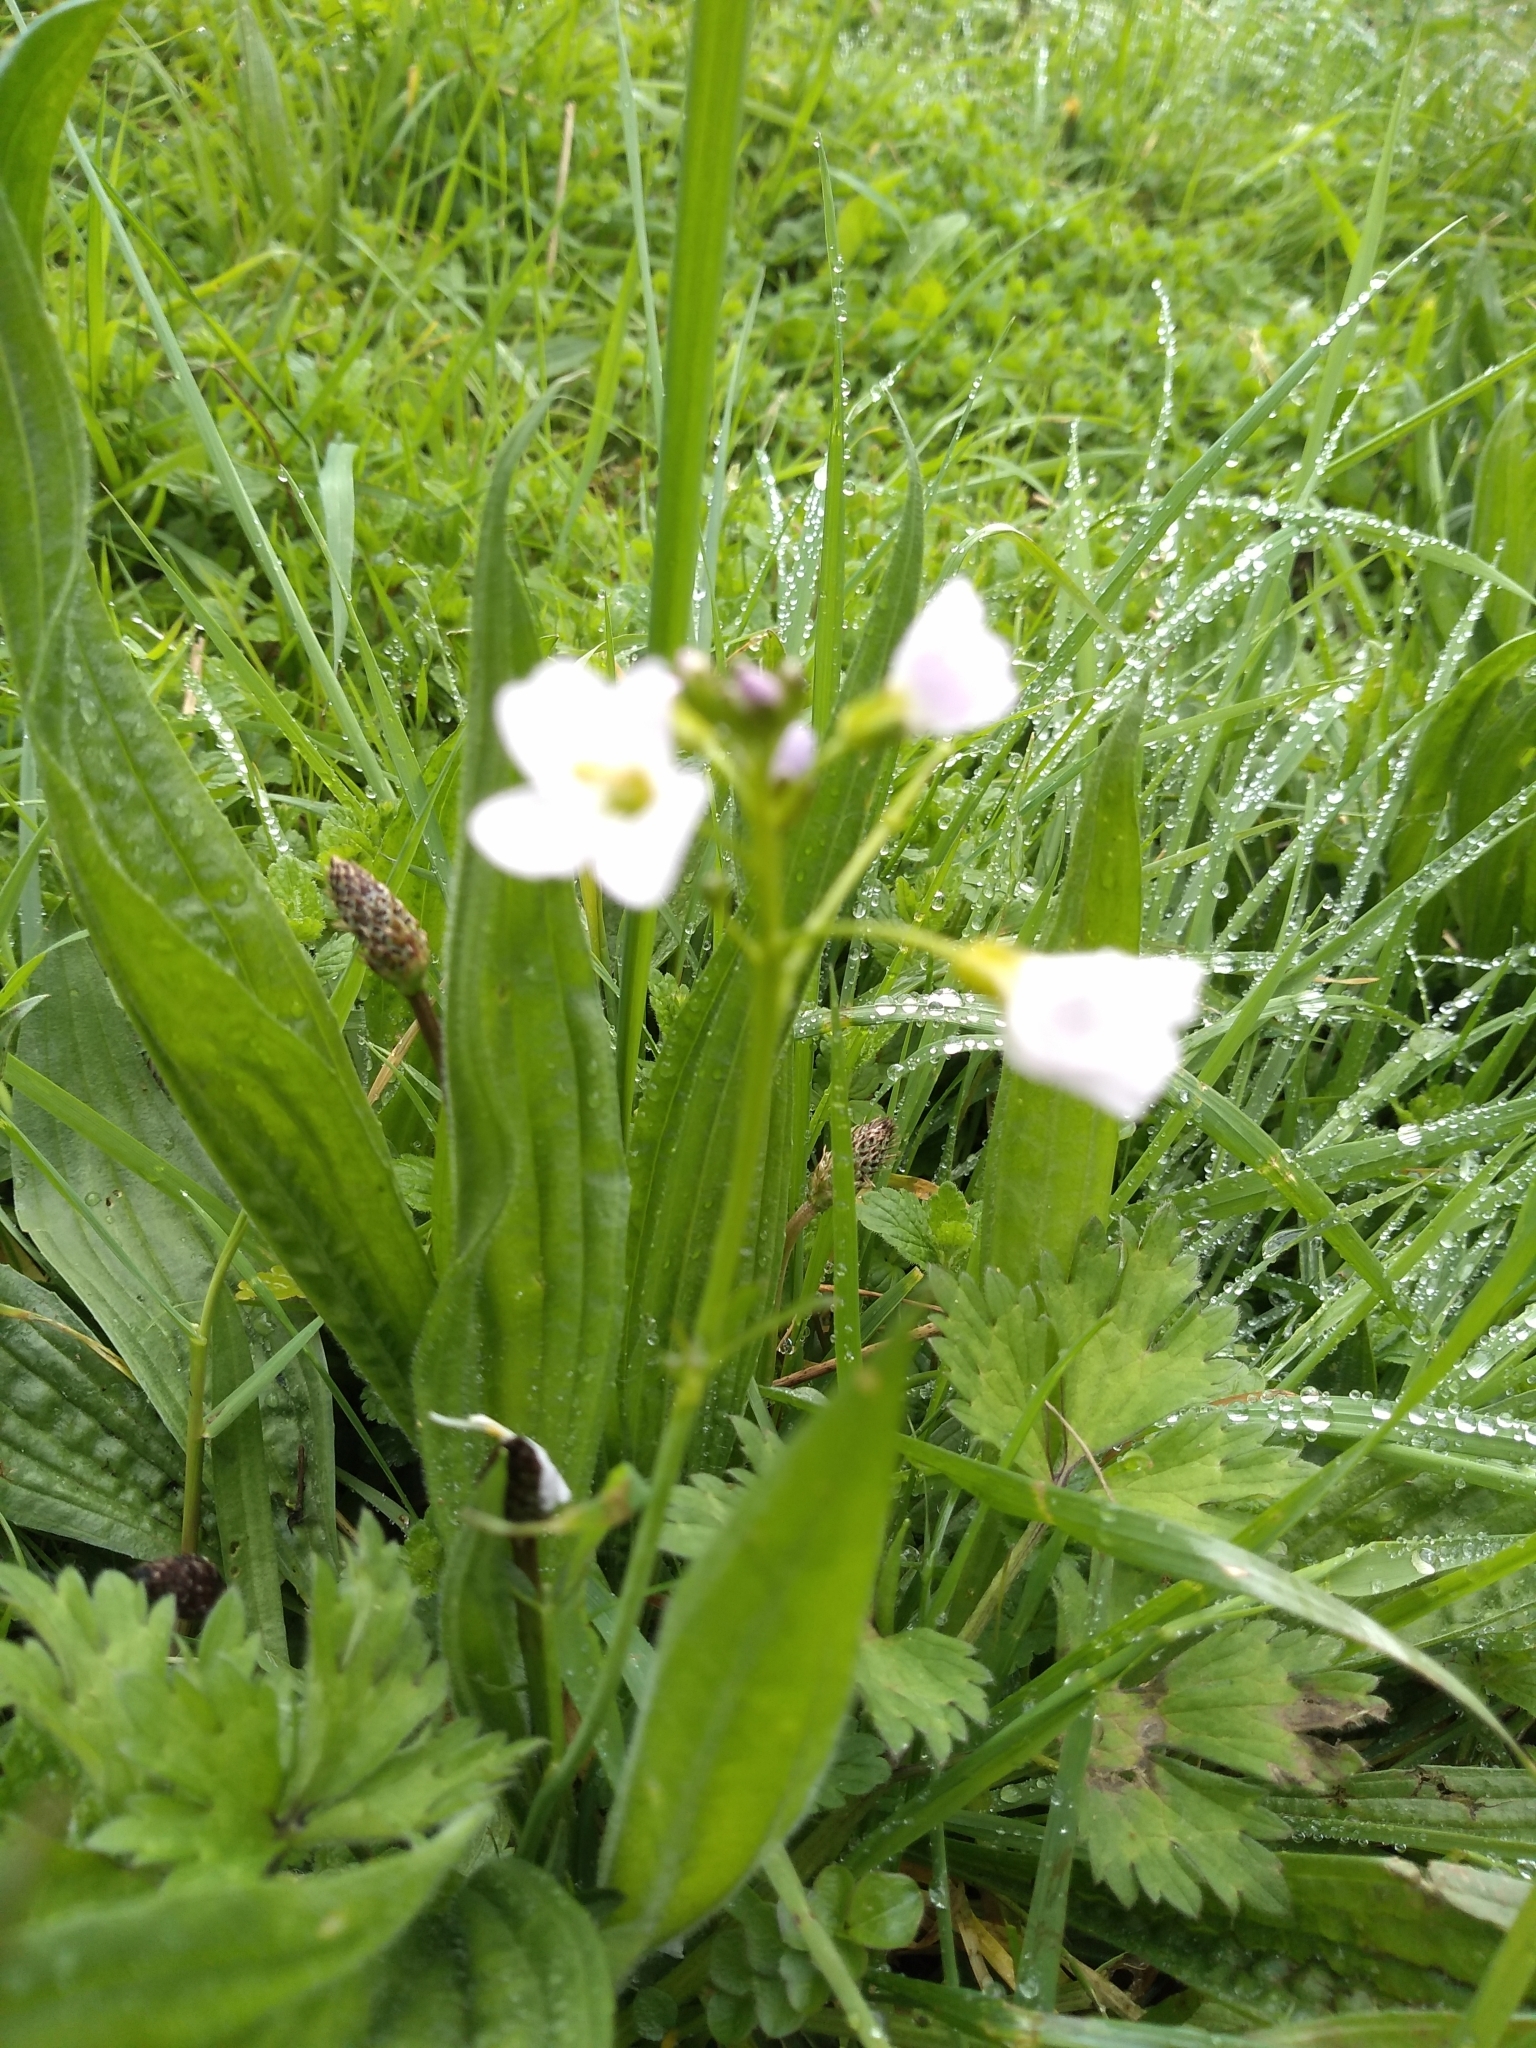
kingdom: Plantae
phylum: Tracheophyta
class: Magnoliopsida
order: Brassicales
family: Brassicaceae
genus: Cardamine
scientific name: Cardamine pratensis
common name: Cuckoo flower
